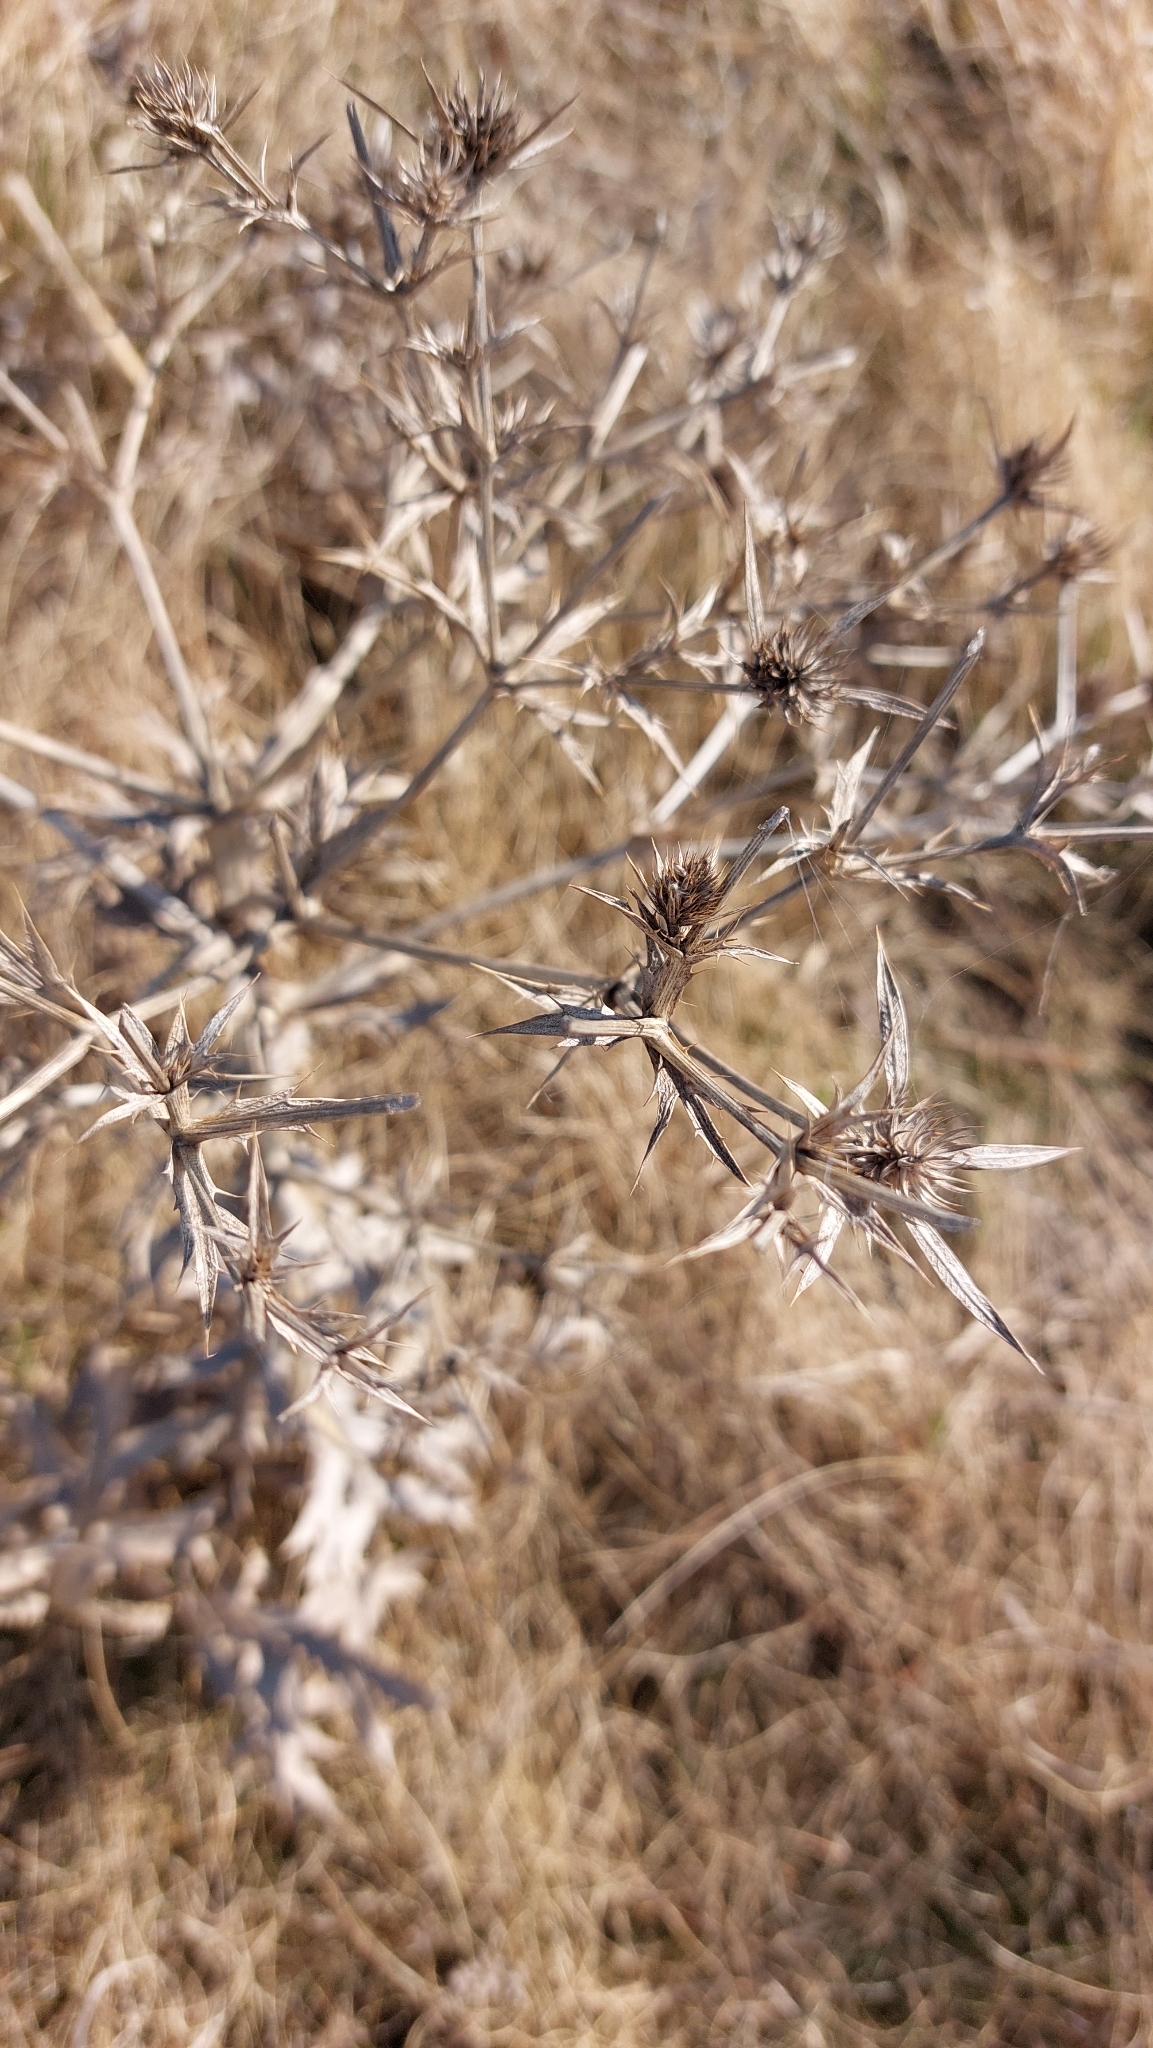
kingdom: Plantae
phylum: Tracheophyta
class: Magnoliopsida
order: Apiales
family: Apiaceae
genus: Eryngium
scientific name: Eryngium campestre
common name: Field eryngo
